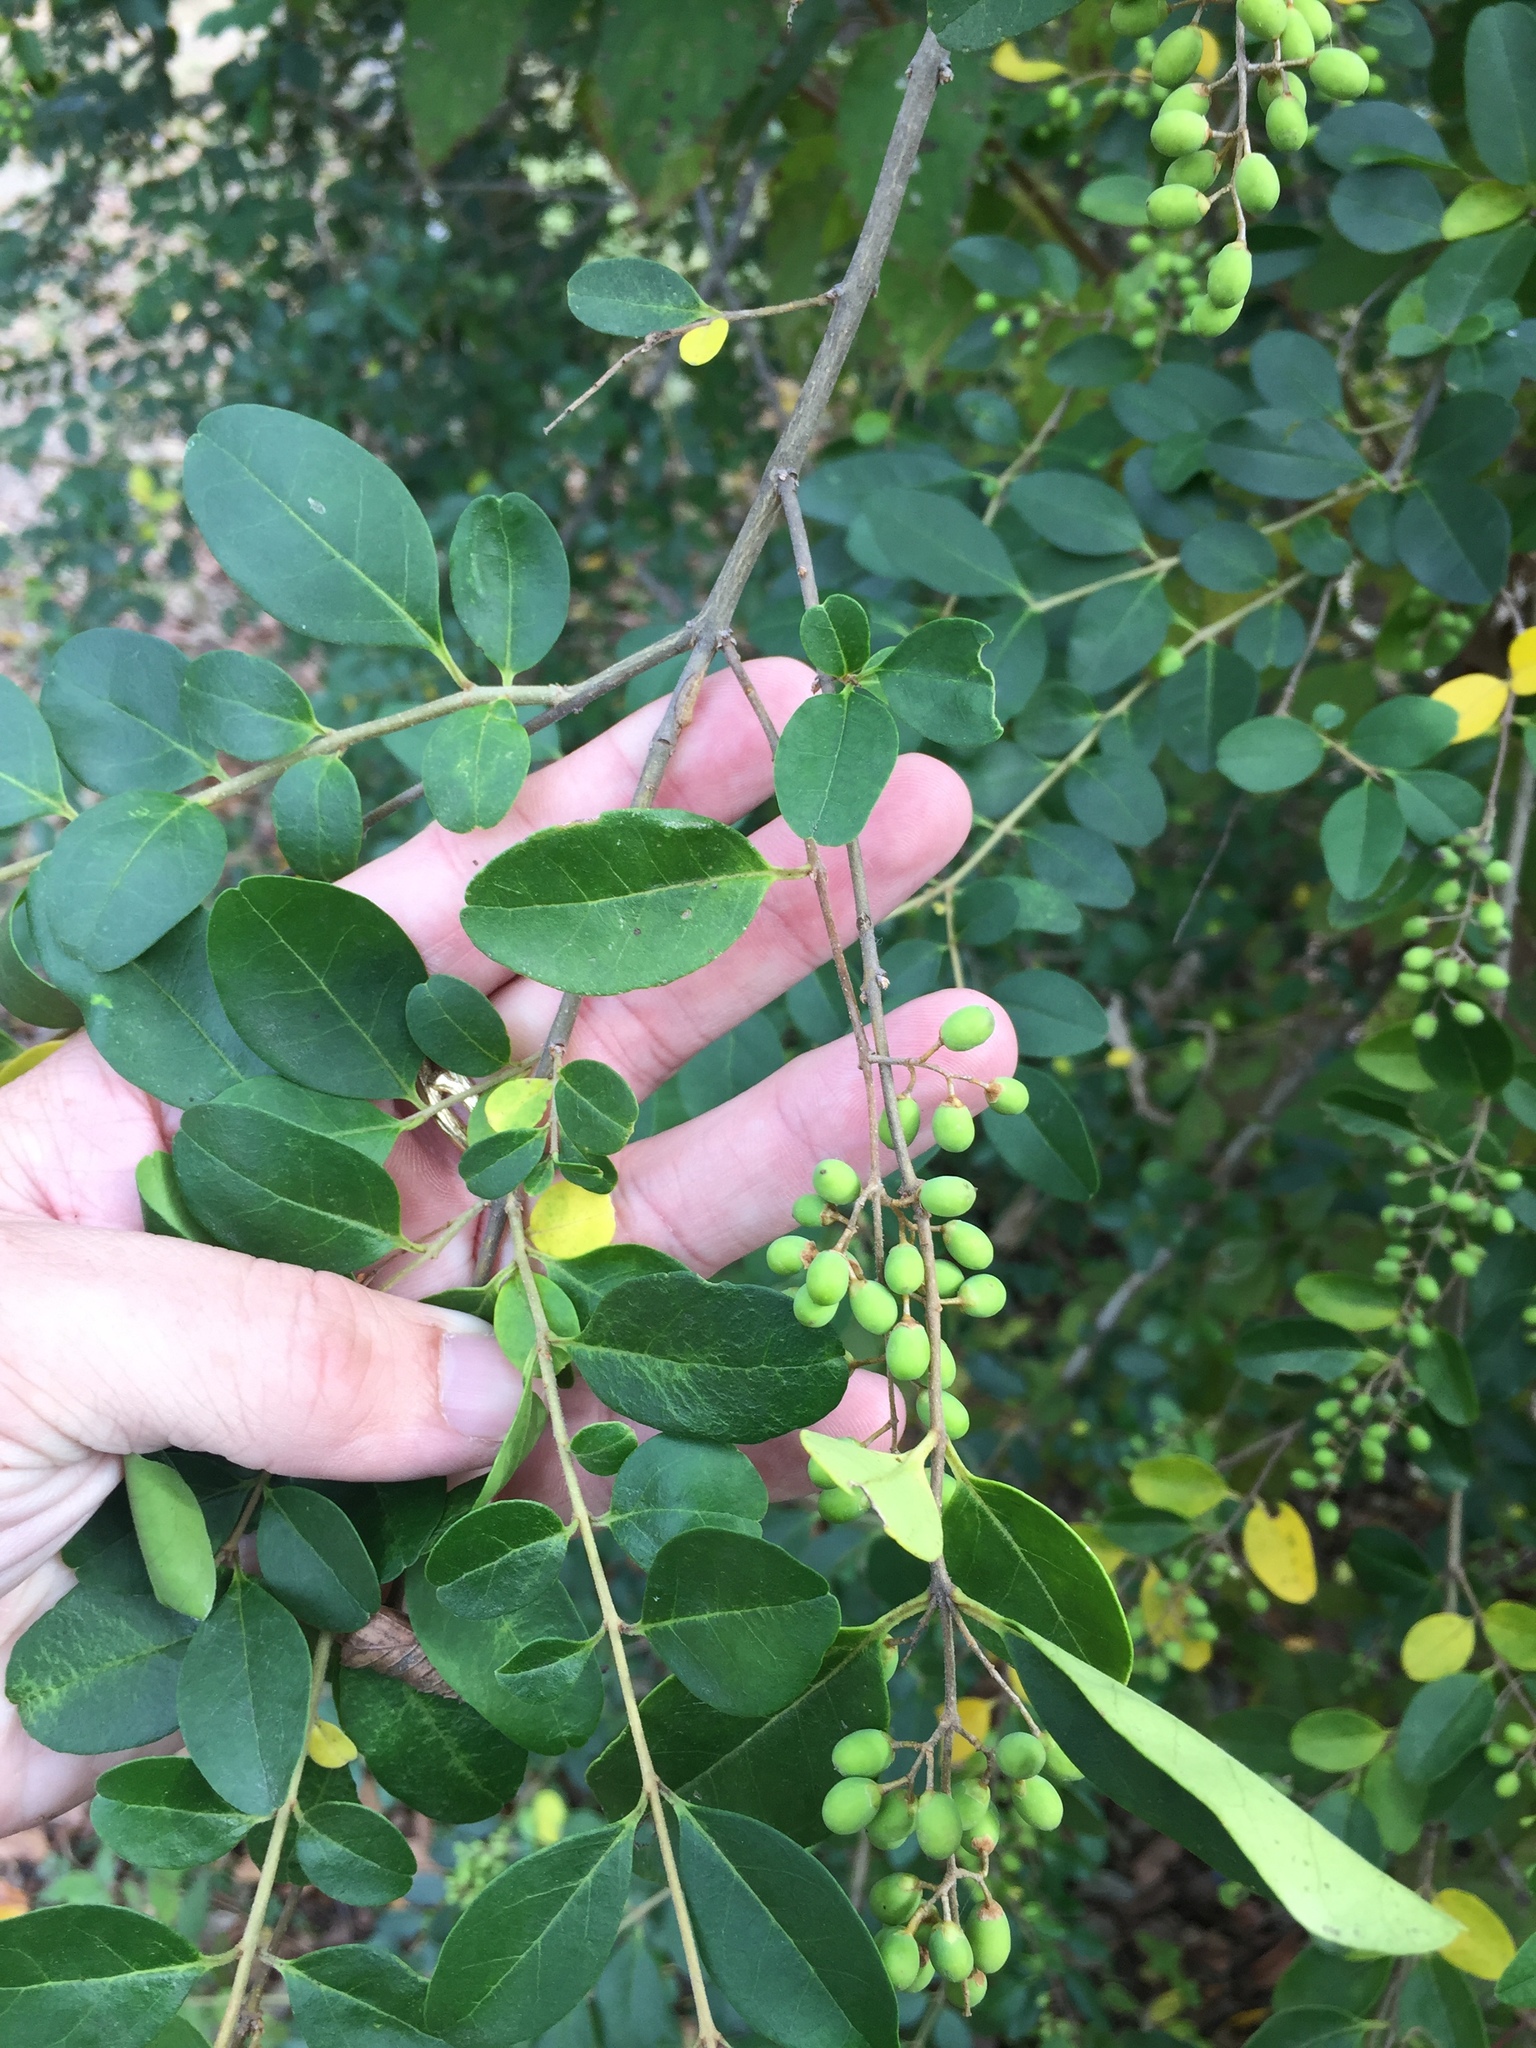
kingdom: Plantae
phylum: Tracheophyta
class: Magnoliopsida
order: Lamiales
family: Oleaceae
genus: Ligustrum
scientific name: Ligustrum sinense
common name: Chinese privet
